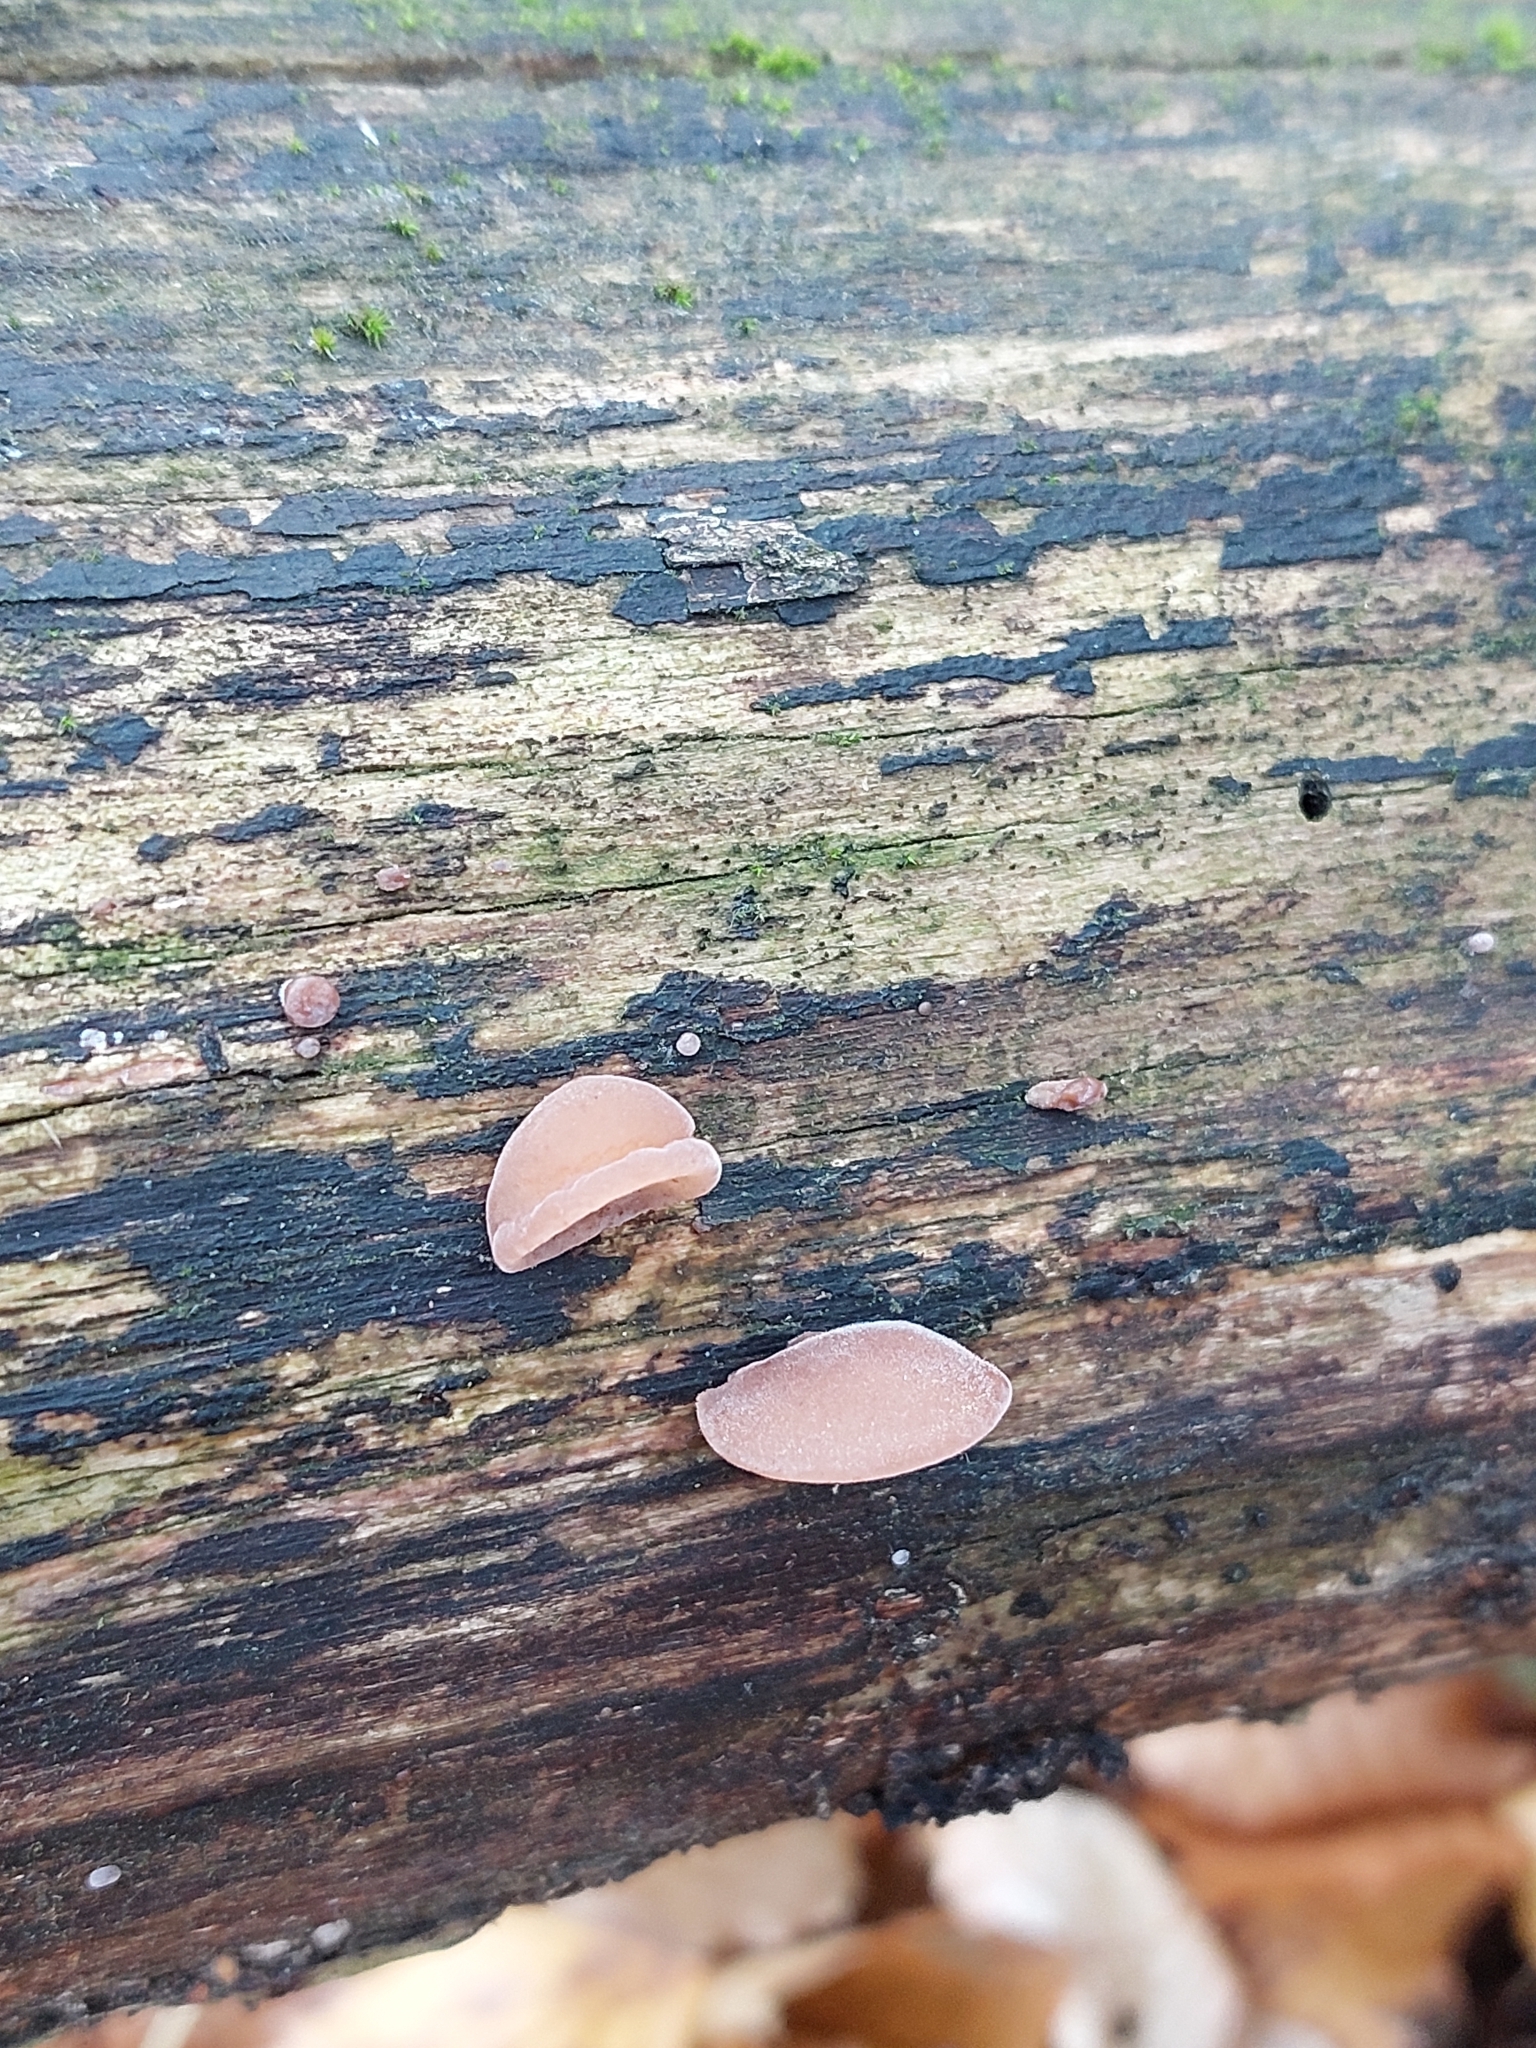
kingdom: Fungi
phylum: Basidiomycota
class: Agaricomycetes
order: Auriculariales
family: Auriculariaceae
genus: Auricularia
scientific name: Auricularia auricula-judae
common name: Jelly ear
